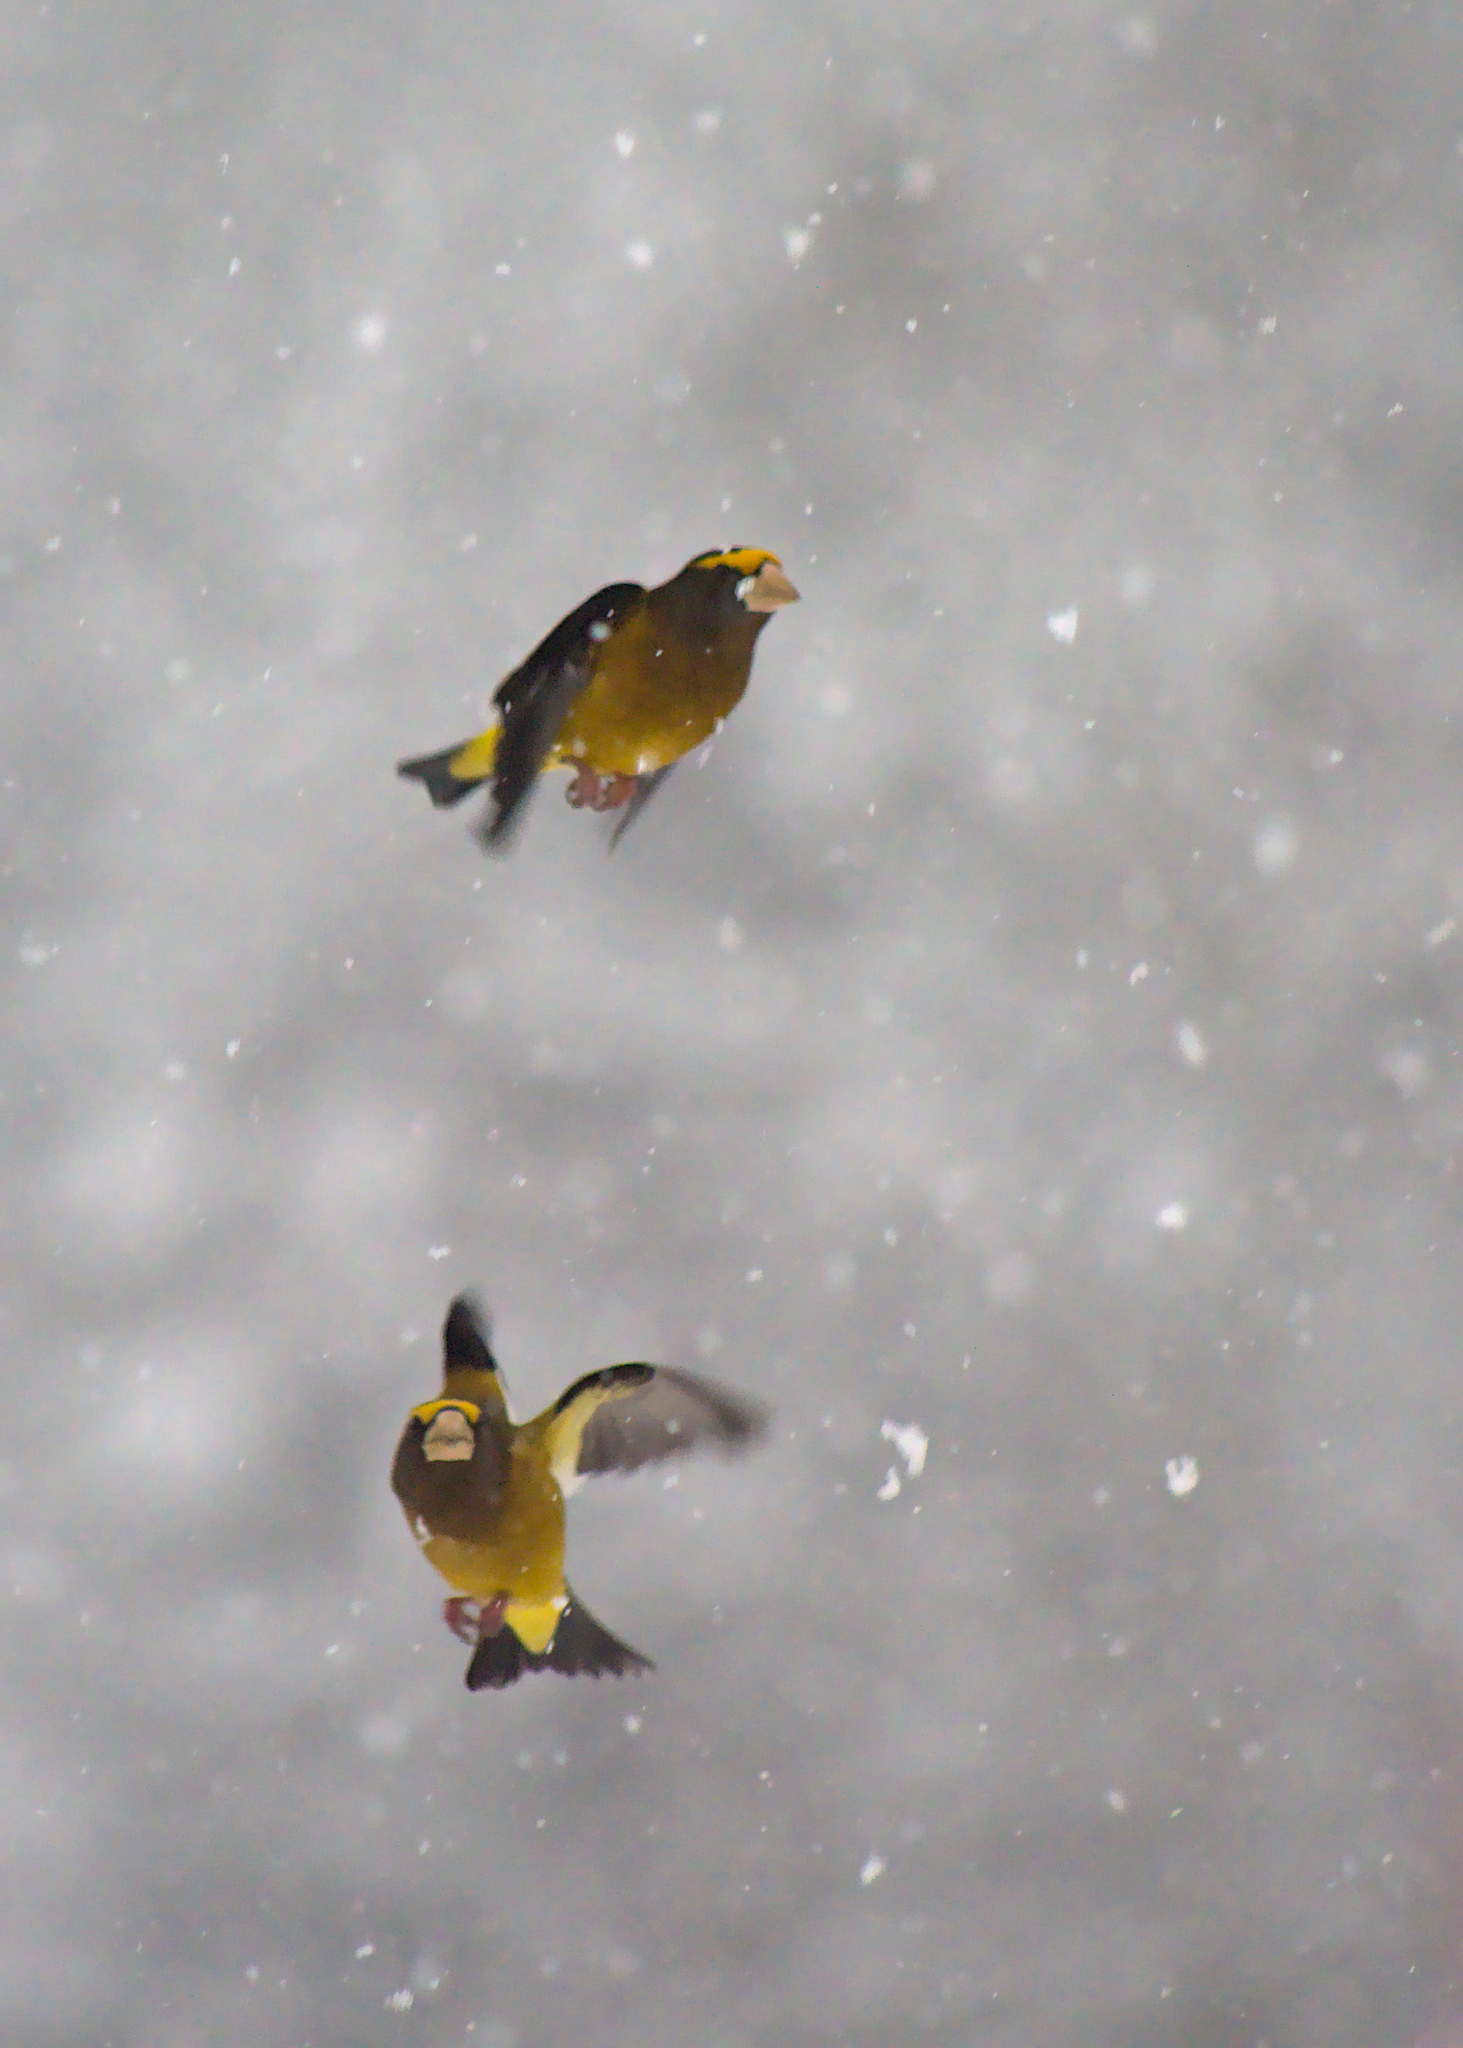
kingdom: Animalia
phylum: Chordata
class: Aves
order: Passeriformes
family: Fringillidae
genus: Hesperiphona
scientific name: Hesperiphona vespertina
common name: Evening grosbeak
